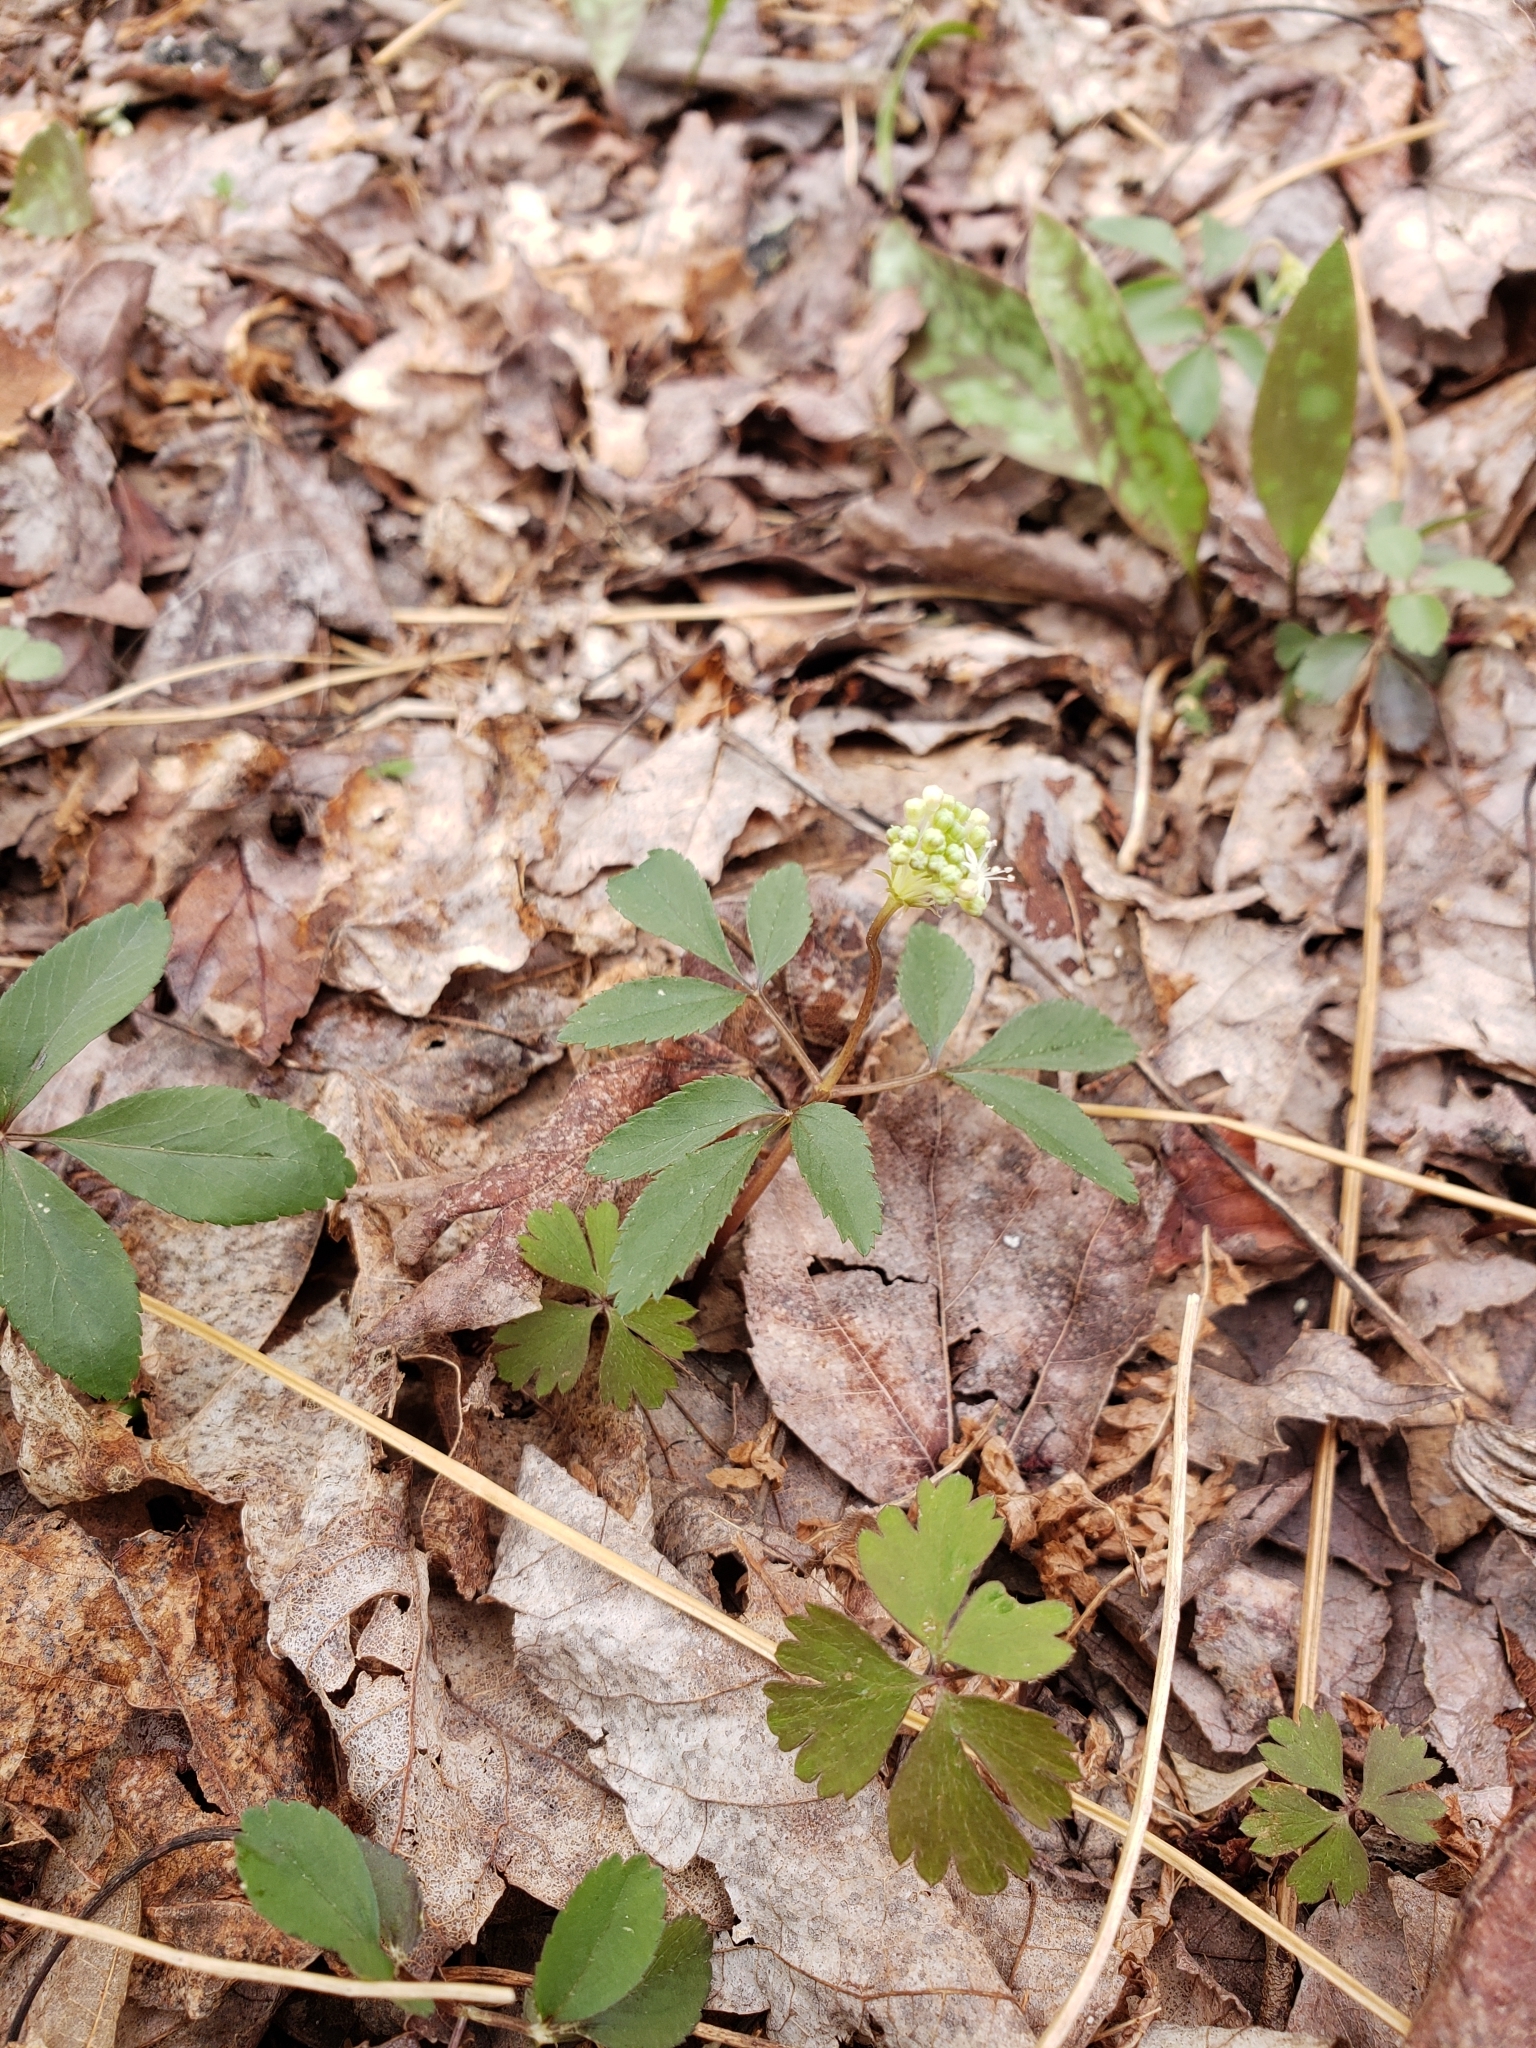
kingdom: Plantae
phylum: Tracheophyta
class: Magnoliopsida
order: Apiales
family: Araliaceae
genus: Panax
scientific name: Panax trifolius
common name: Dwarf ginseng
